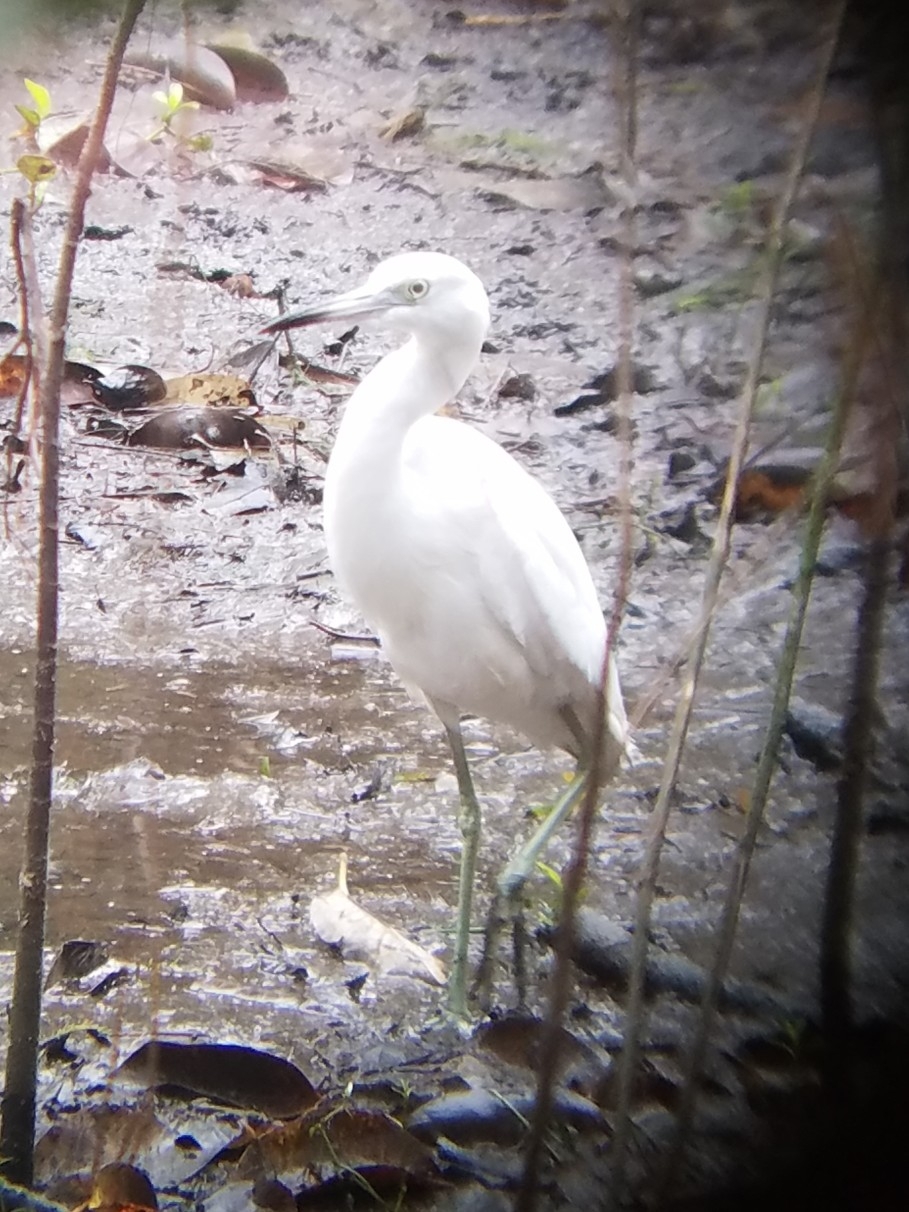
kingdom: Animalia
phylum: Chordata
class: Aves
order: Pelecaniformes
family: Ardeidae
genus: Egretta
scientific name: Egretta caerulea
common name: Little blue heron
